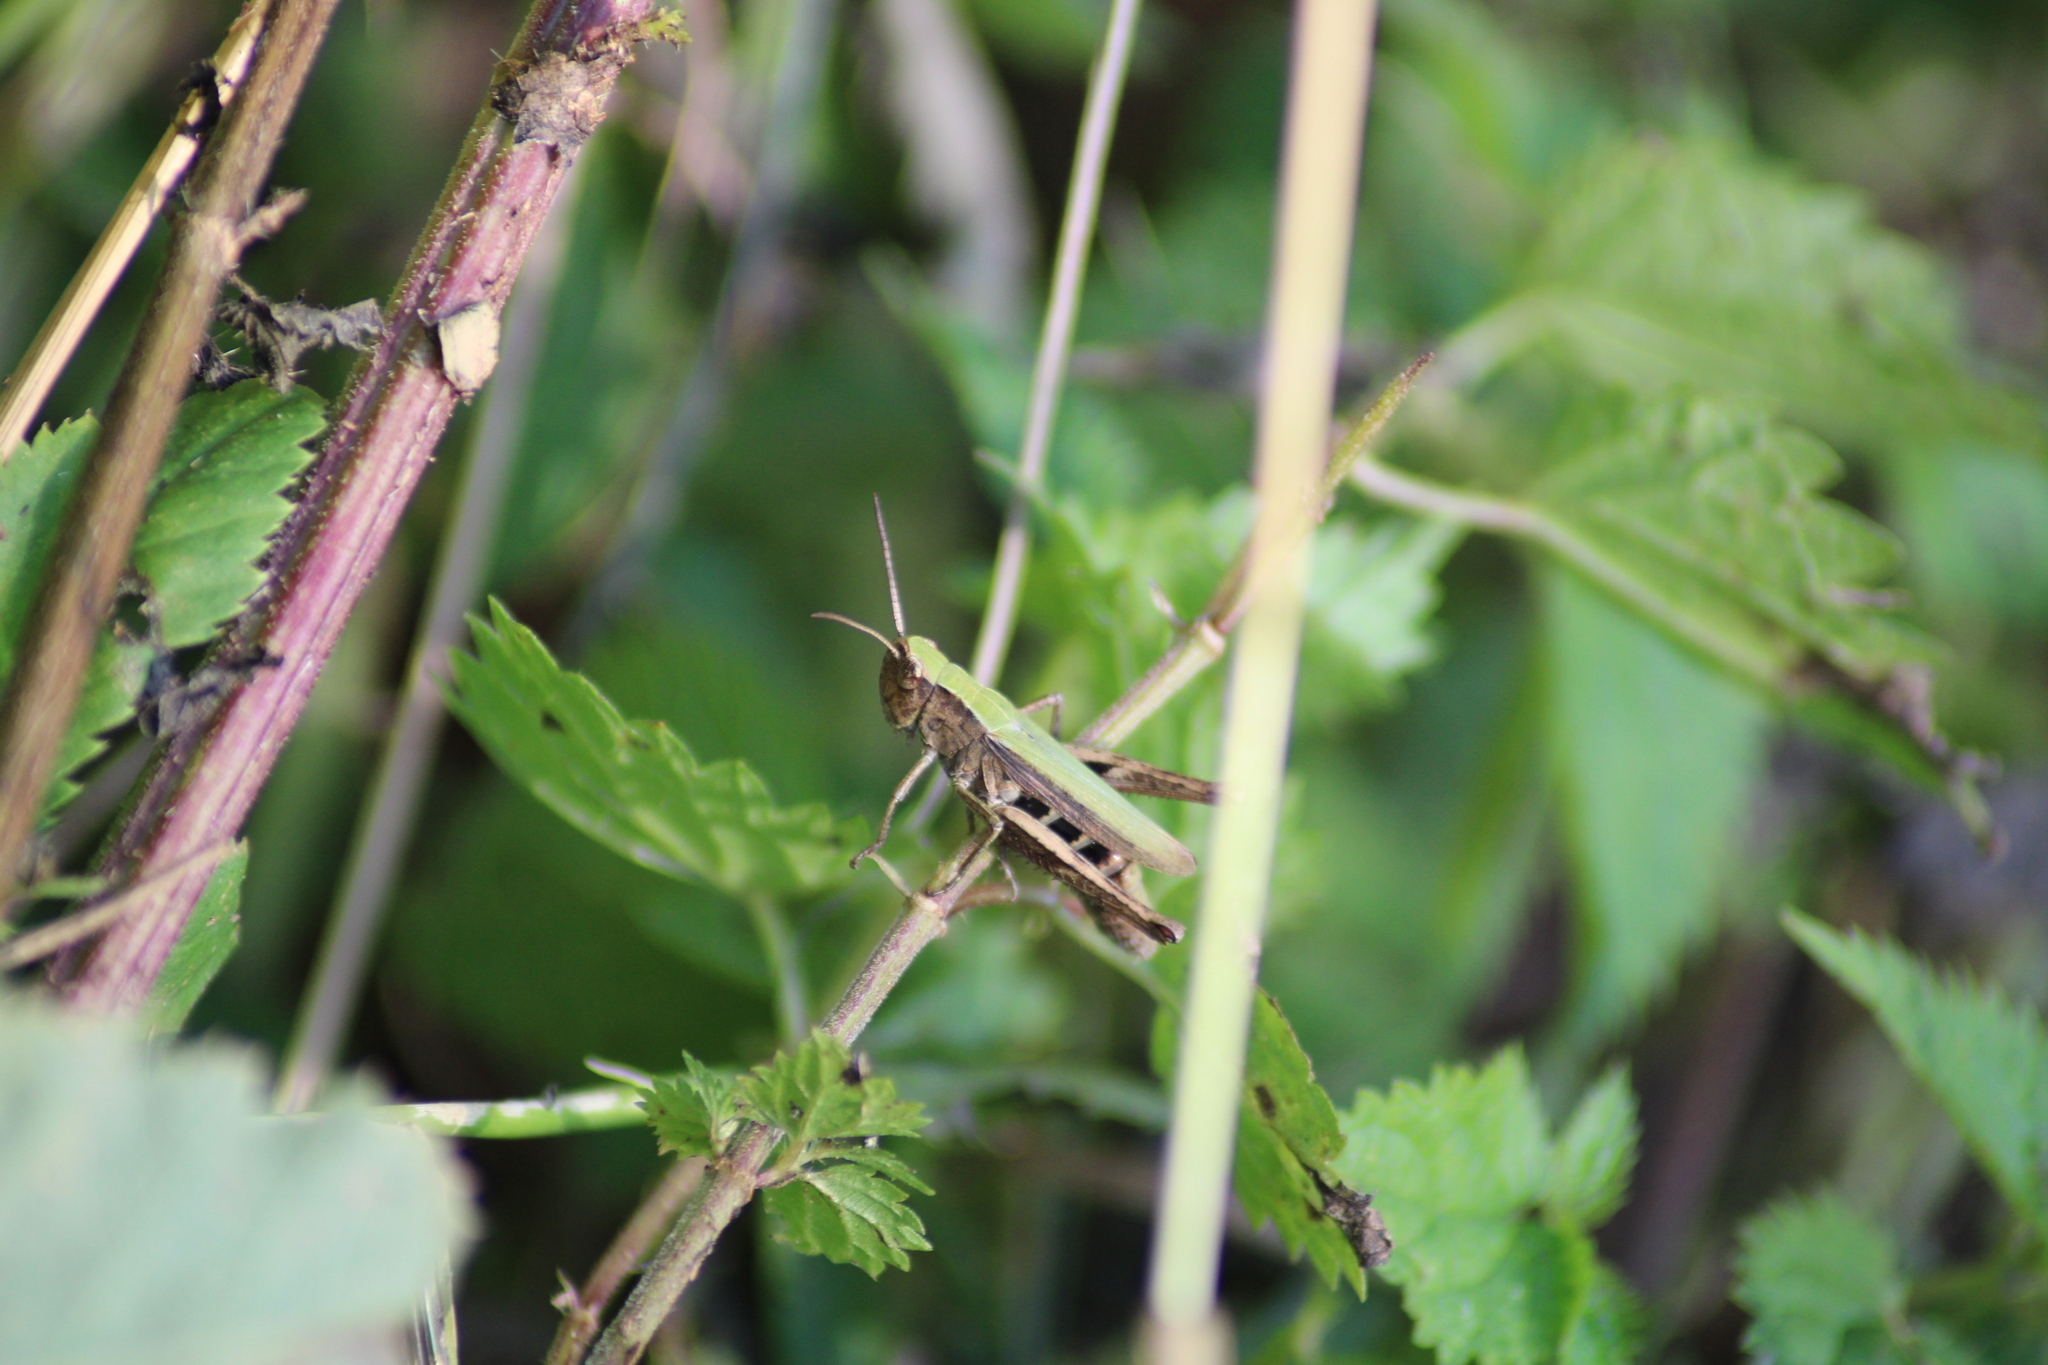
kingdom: Animalia
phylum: Arthropoda
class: Insecta
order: Orthoptera
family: Acrididae
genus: Chorthippus
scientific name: Chorthippus dorsatus
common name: Steppe grasshopper
